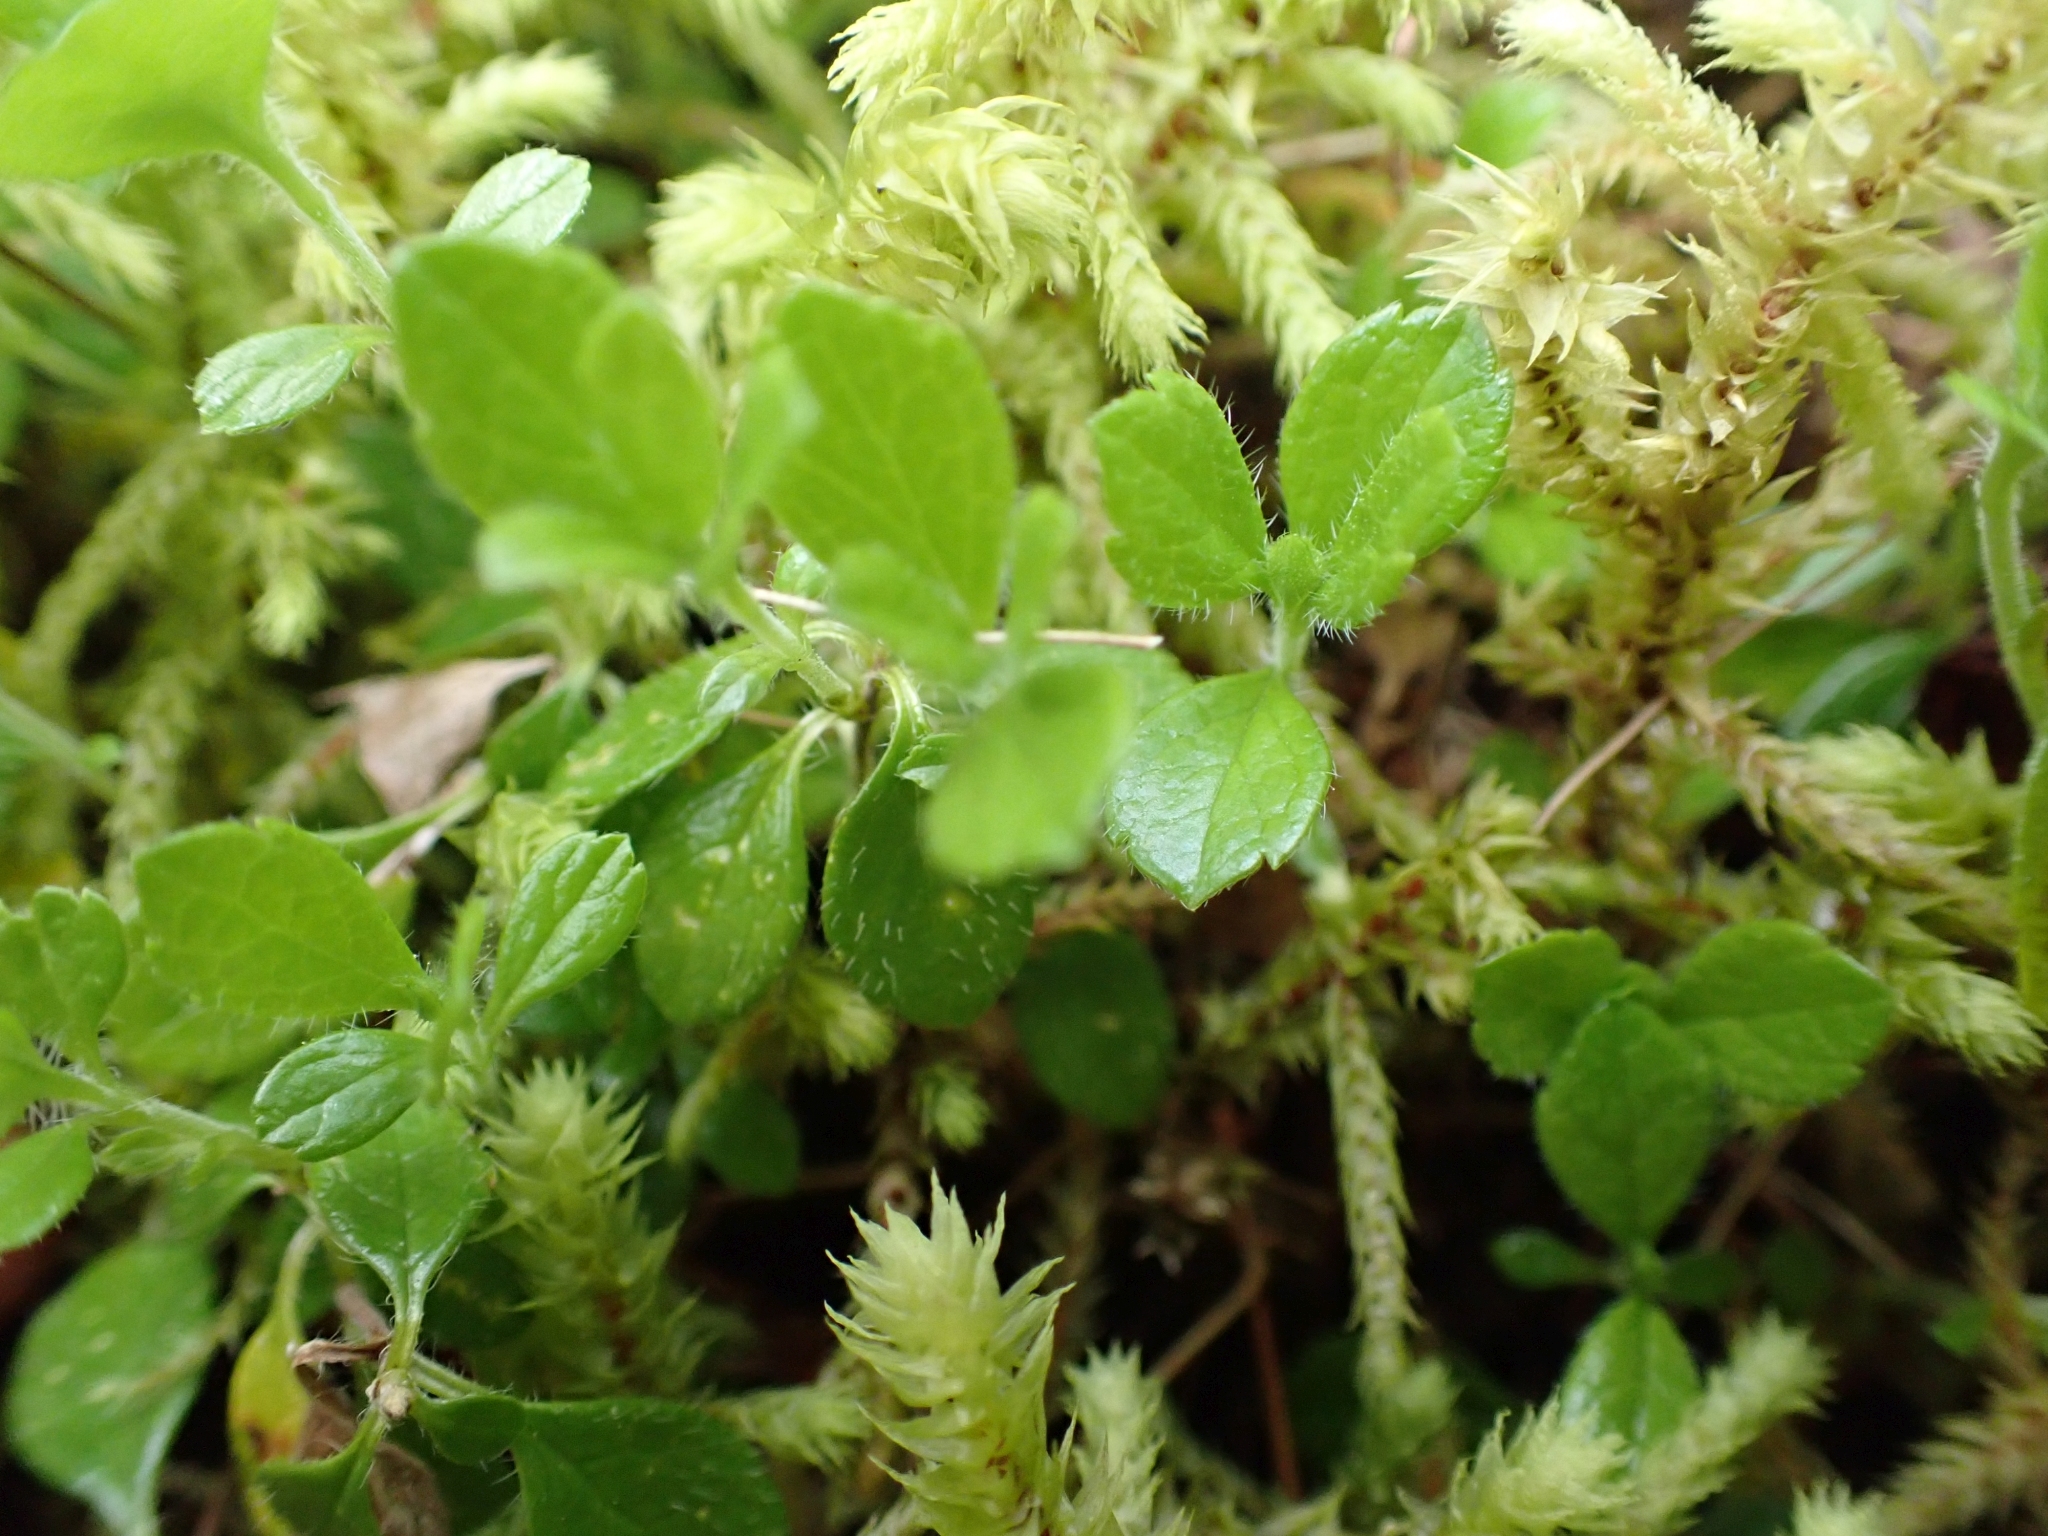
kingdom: Plantae
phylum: Tracheophyta
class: Magnoliopsida
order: Dipsacales
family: Caprifoliaceae
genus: Linnaea
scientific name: Linnaea borealis
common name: Twinflower
